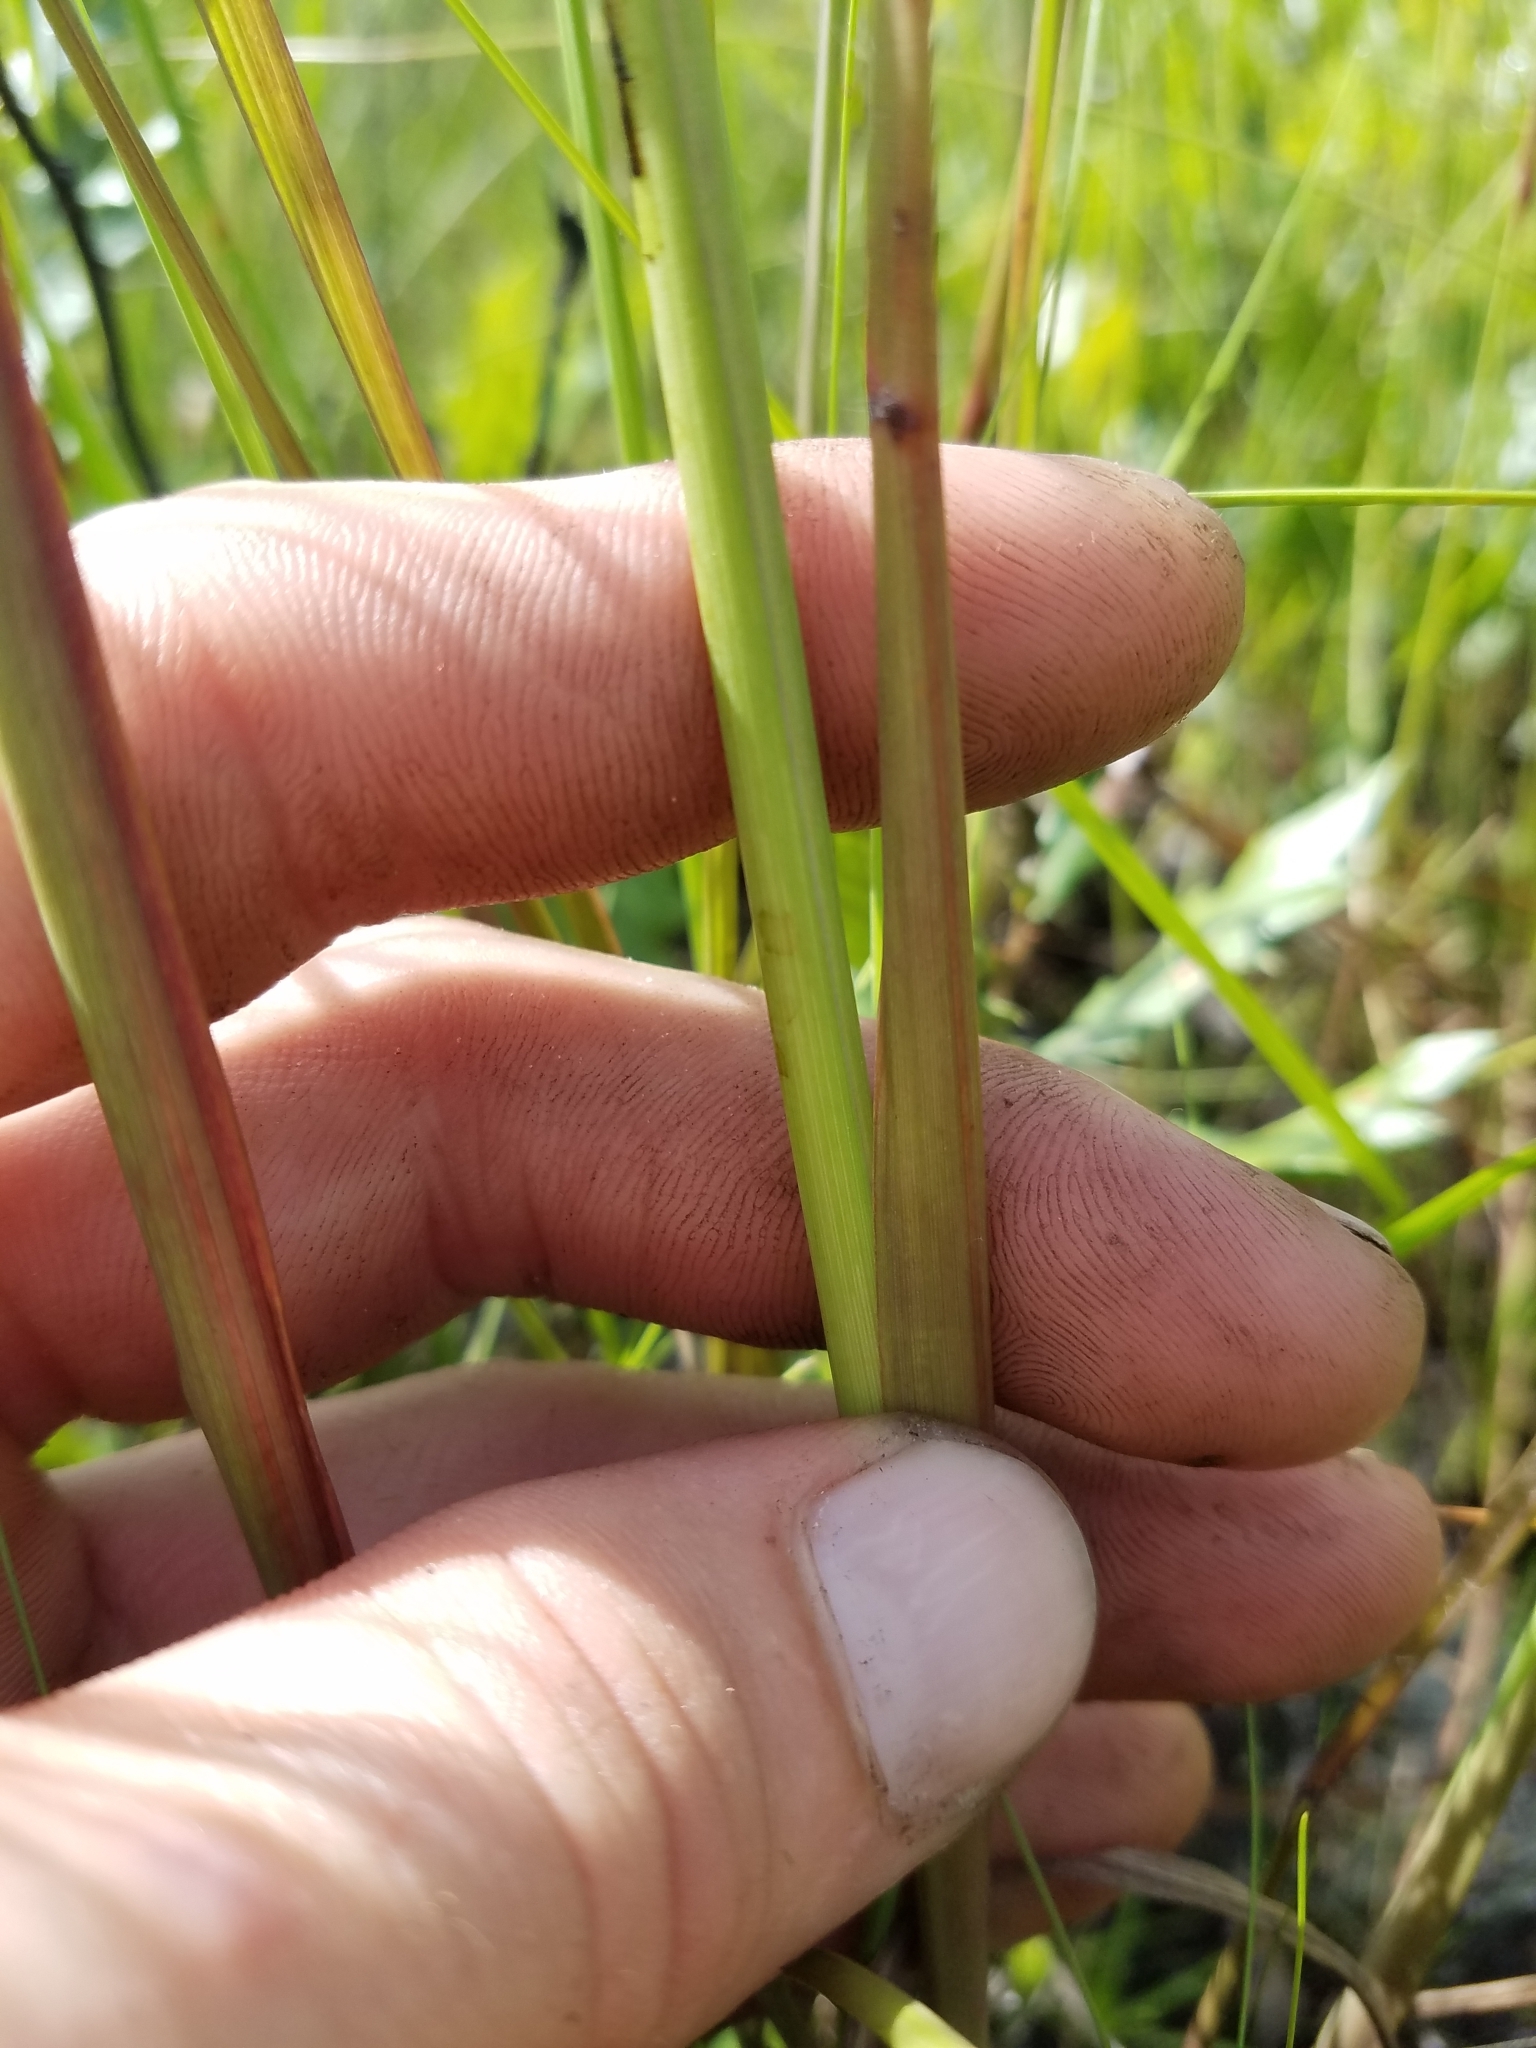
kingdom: Plantae
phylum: Tracheophyta
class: Liliopsida
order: Poales
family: Poaceae
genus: Paspalum
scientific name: Paspalum praecox
